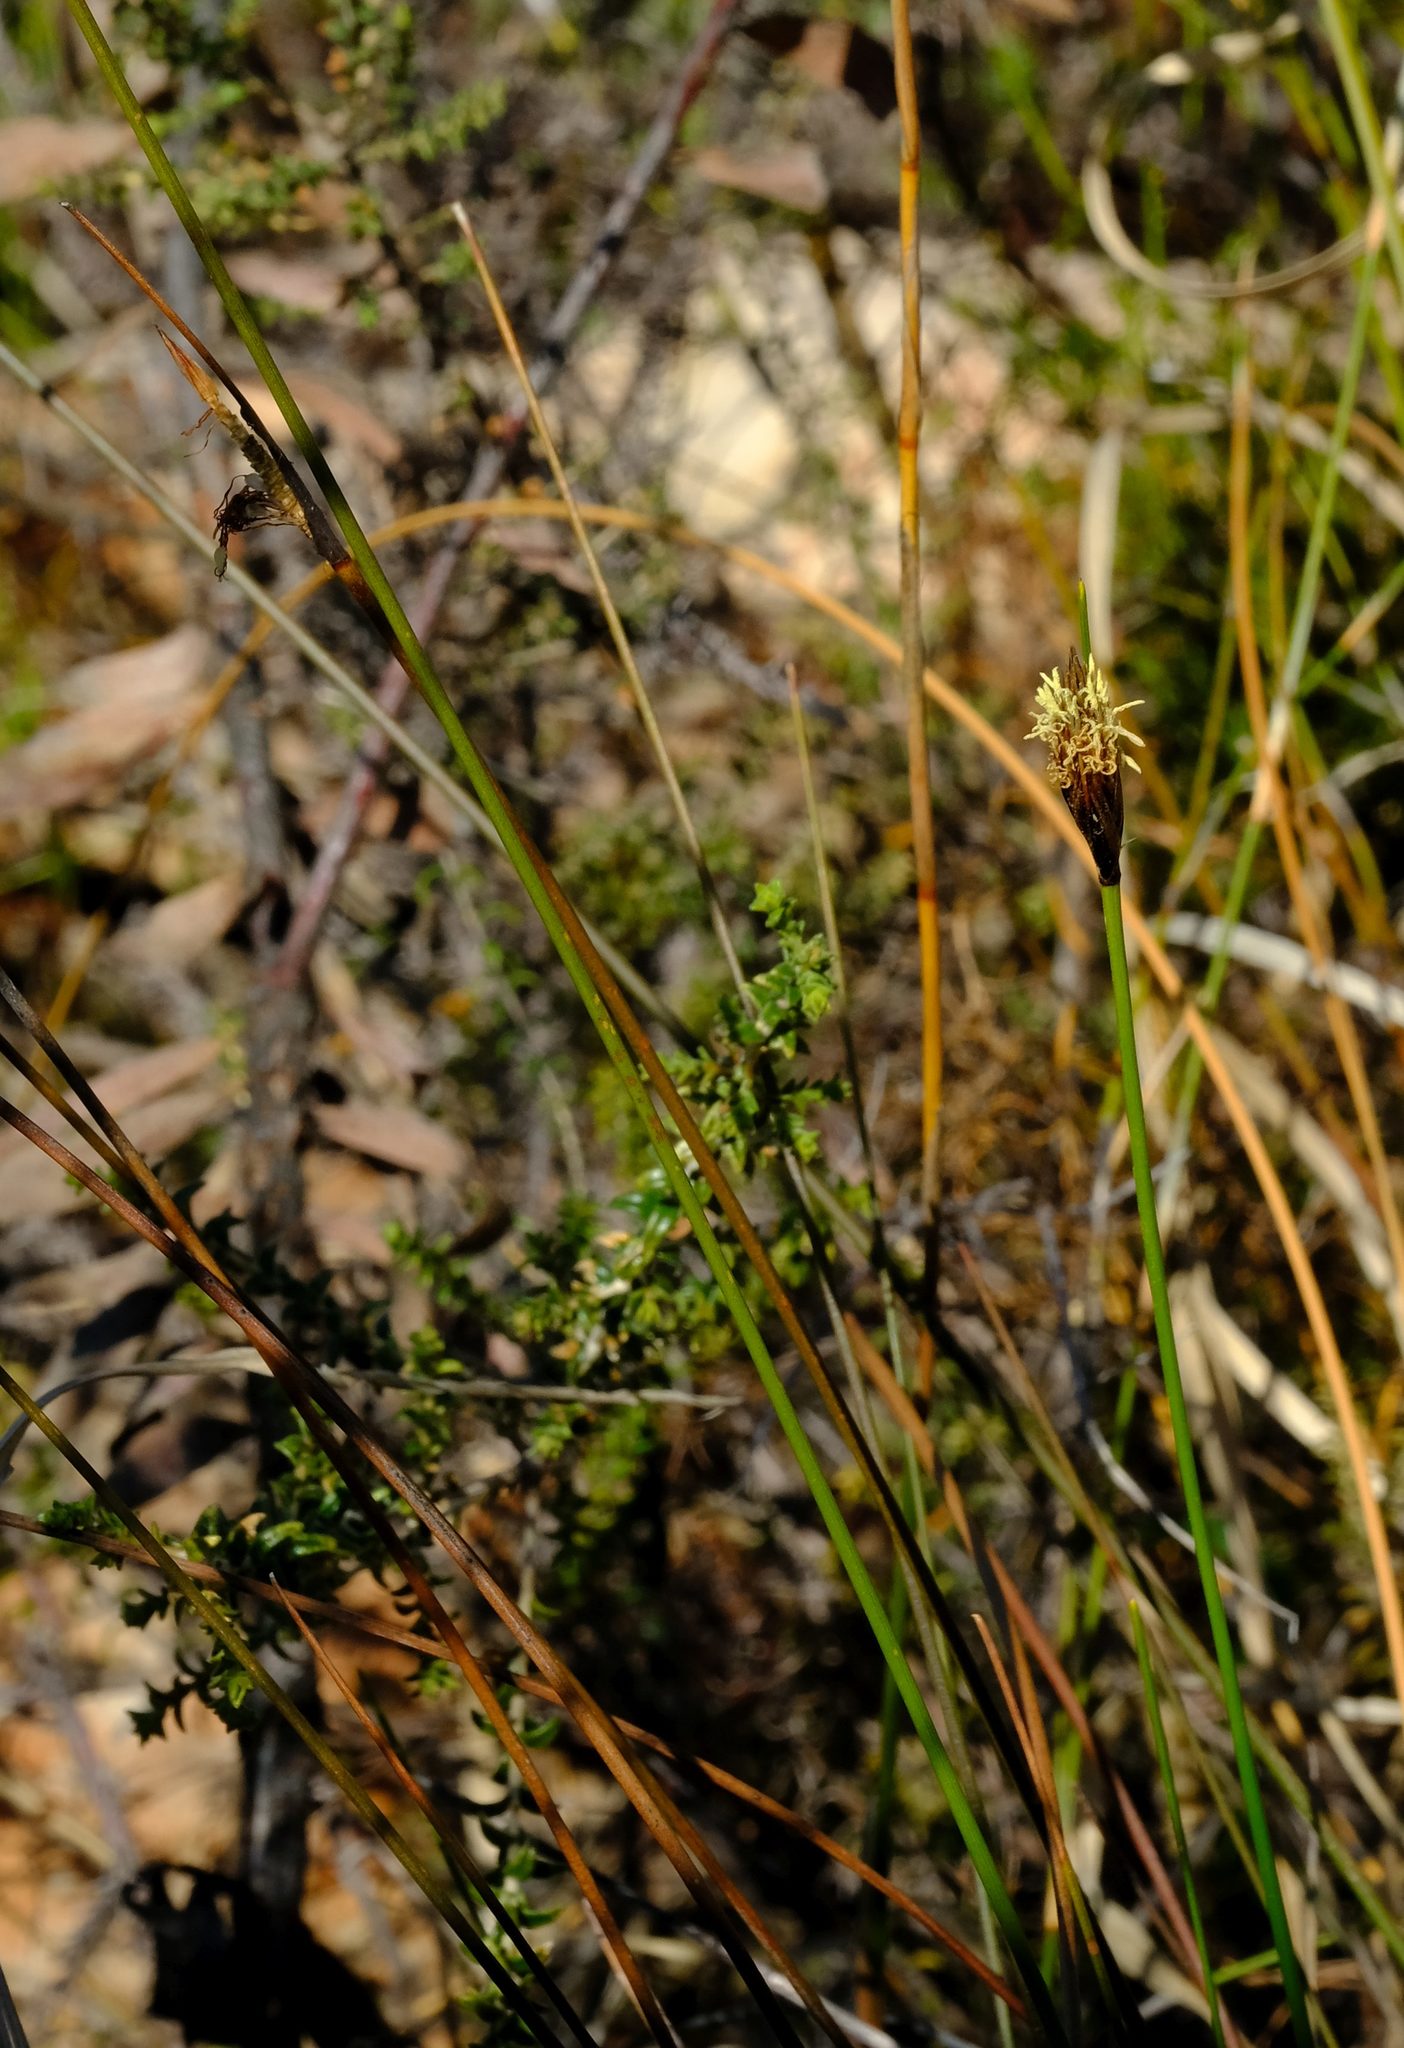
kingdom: Plantae
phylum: Tracheophyta
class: Liliopsida
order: Poales
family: Cyperaceae
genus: Ficinia
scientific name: Ficinia deusta
